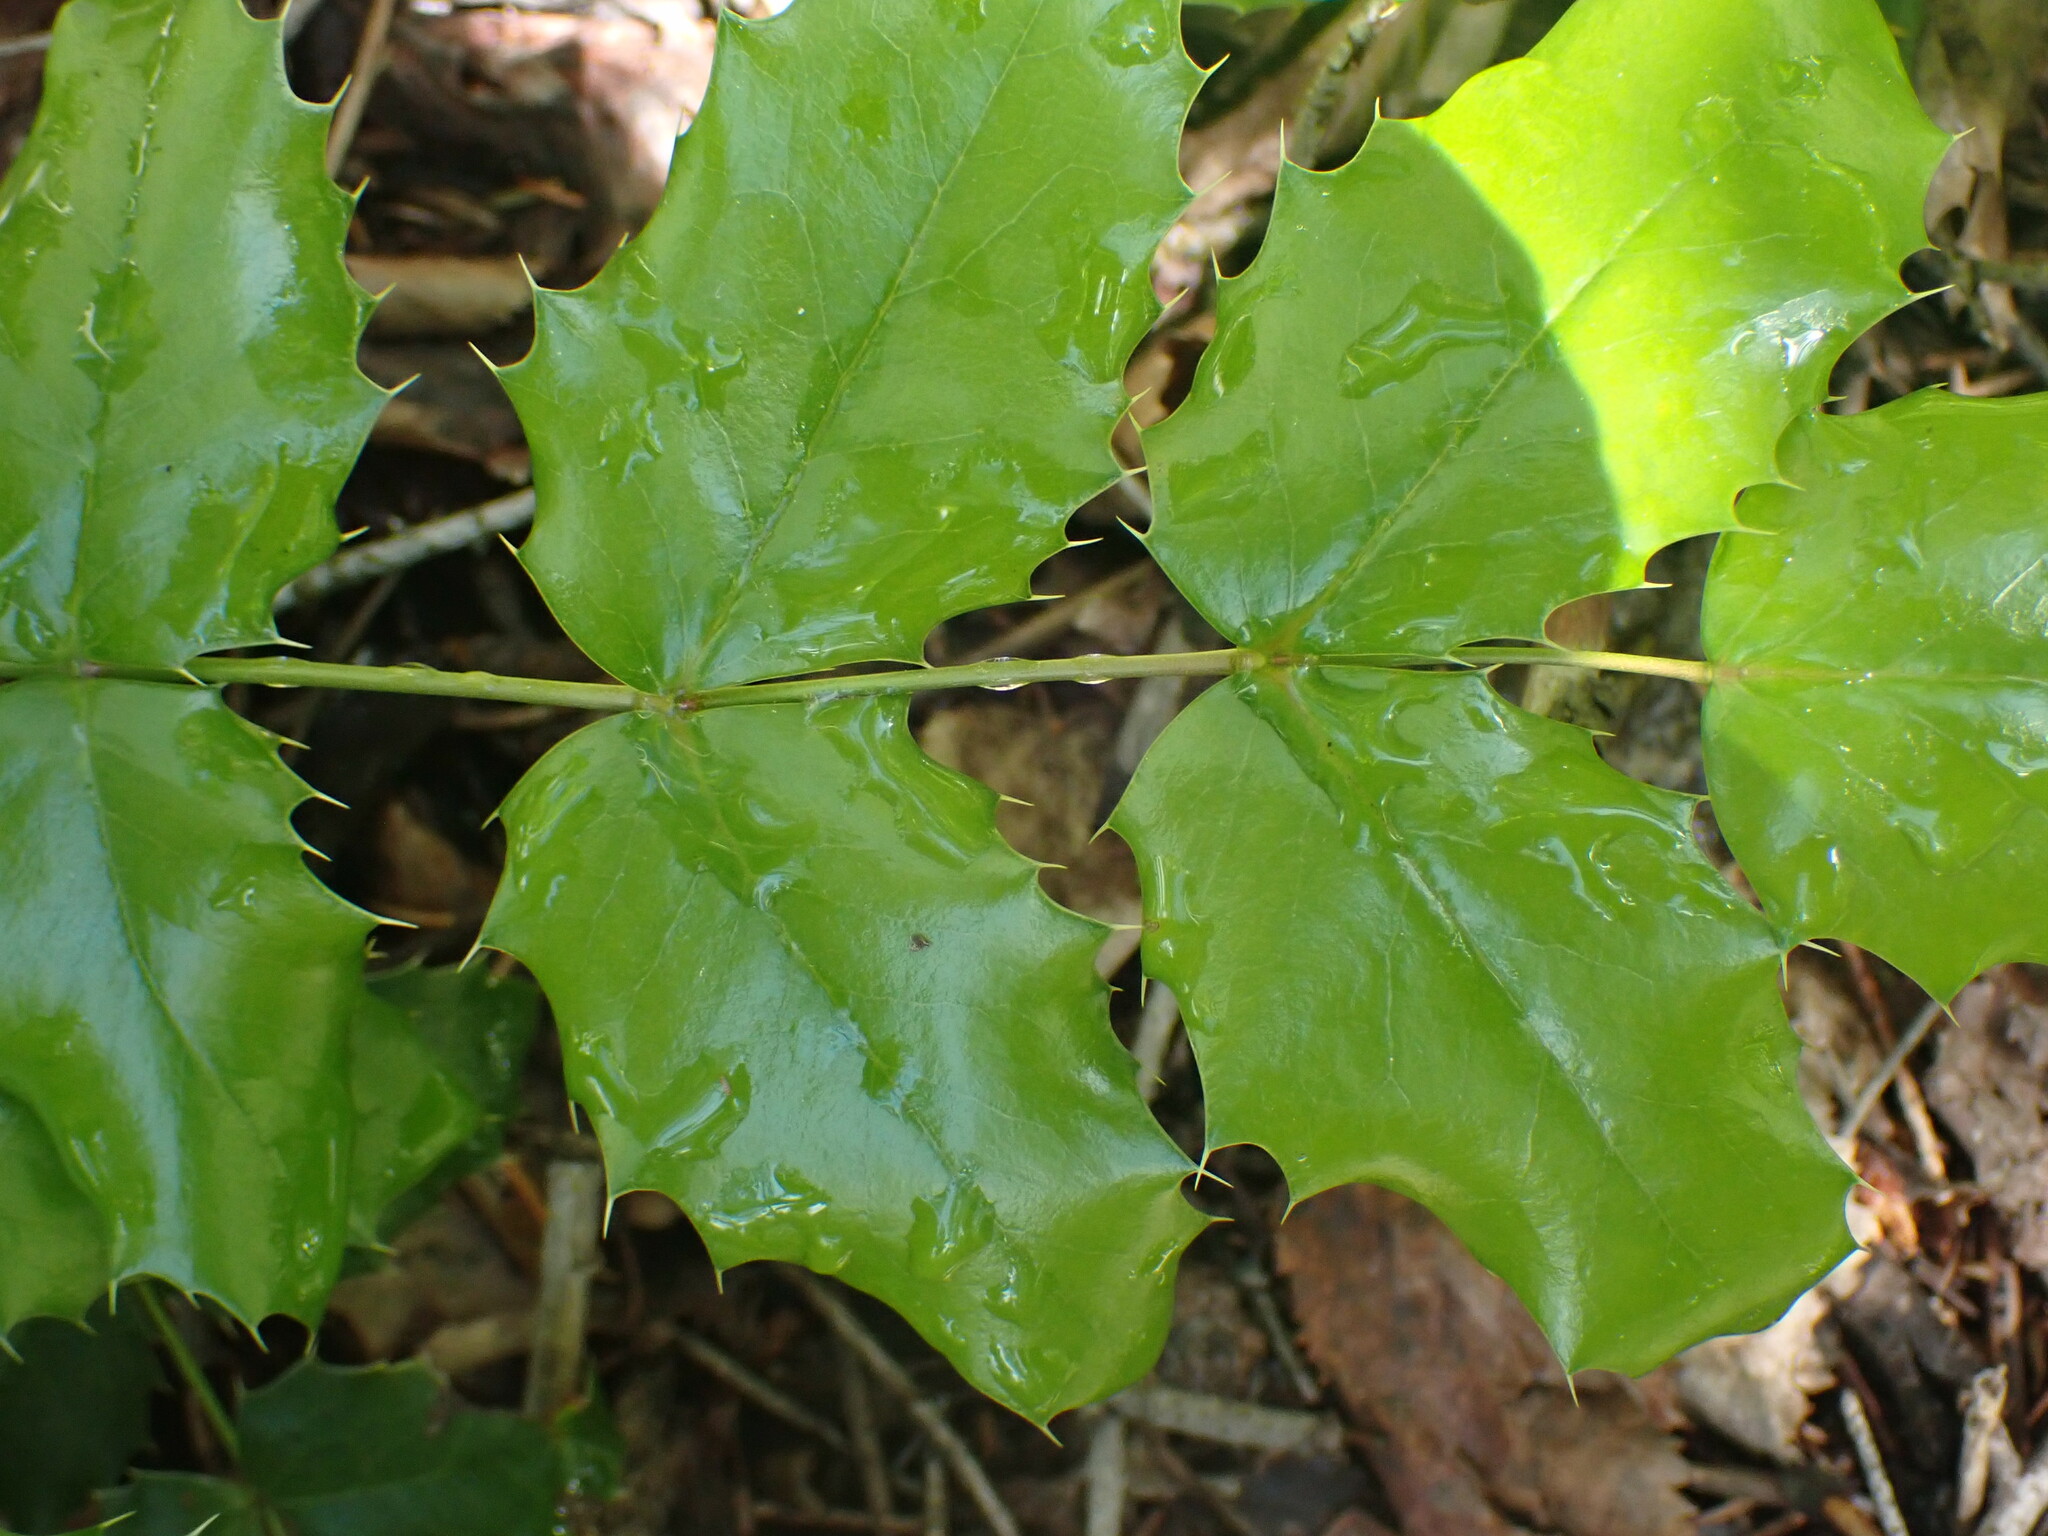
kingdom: Plantae
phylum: Tracheophyta
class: Magnoliopsida
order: Ranunculales
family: Berberidaceae
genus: Mahonia
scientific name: Mahonia aquifolium
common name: Oregon-grape
